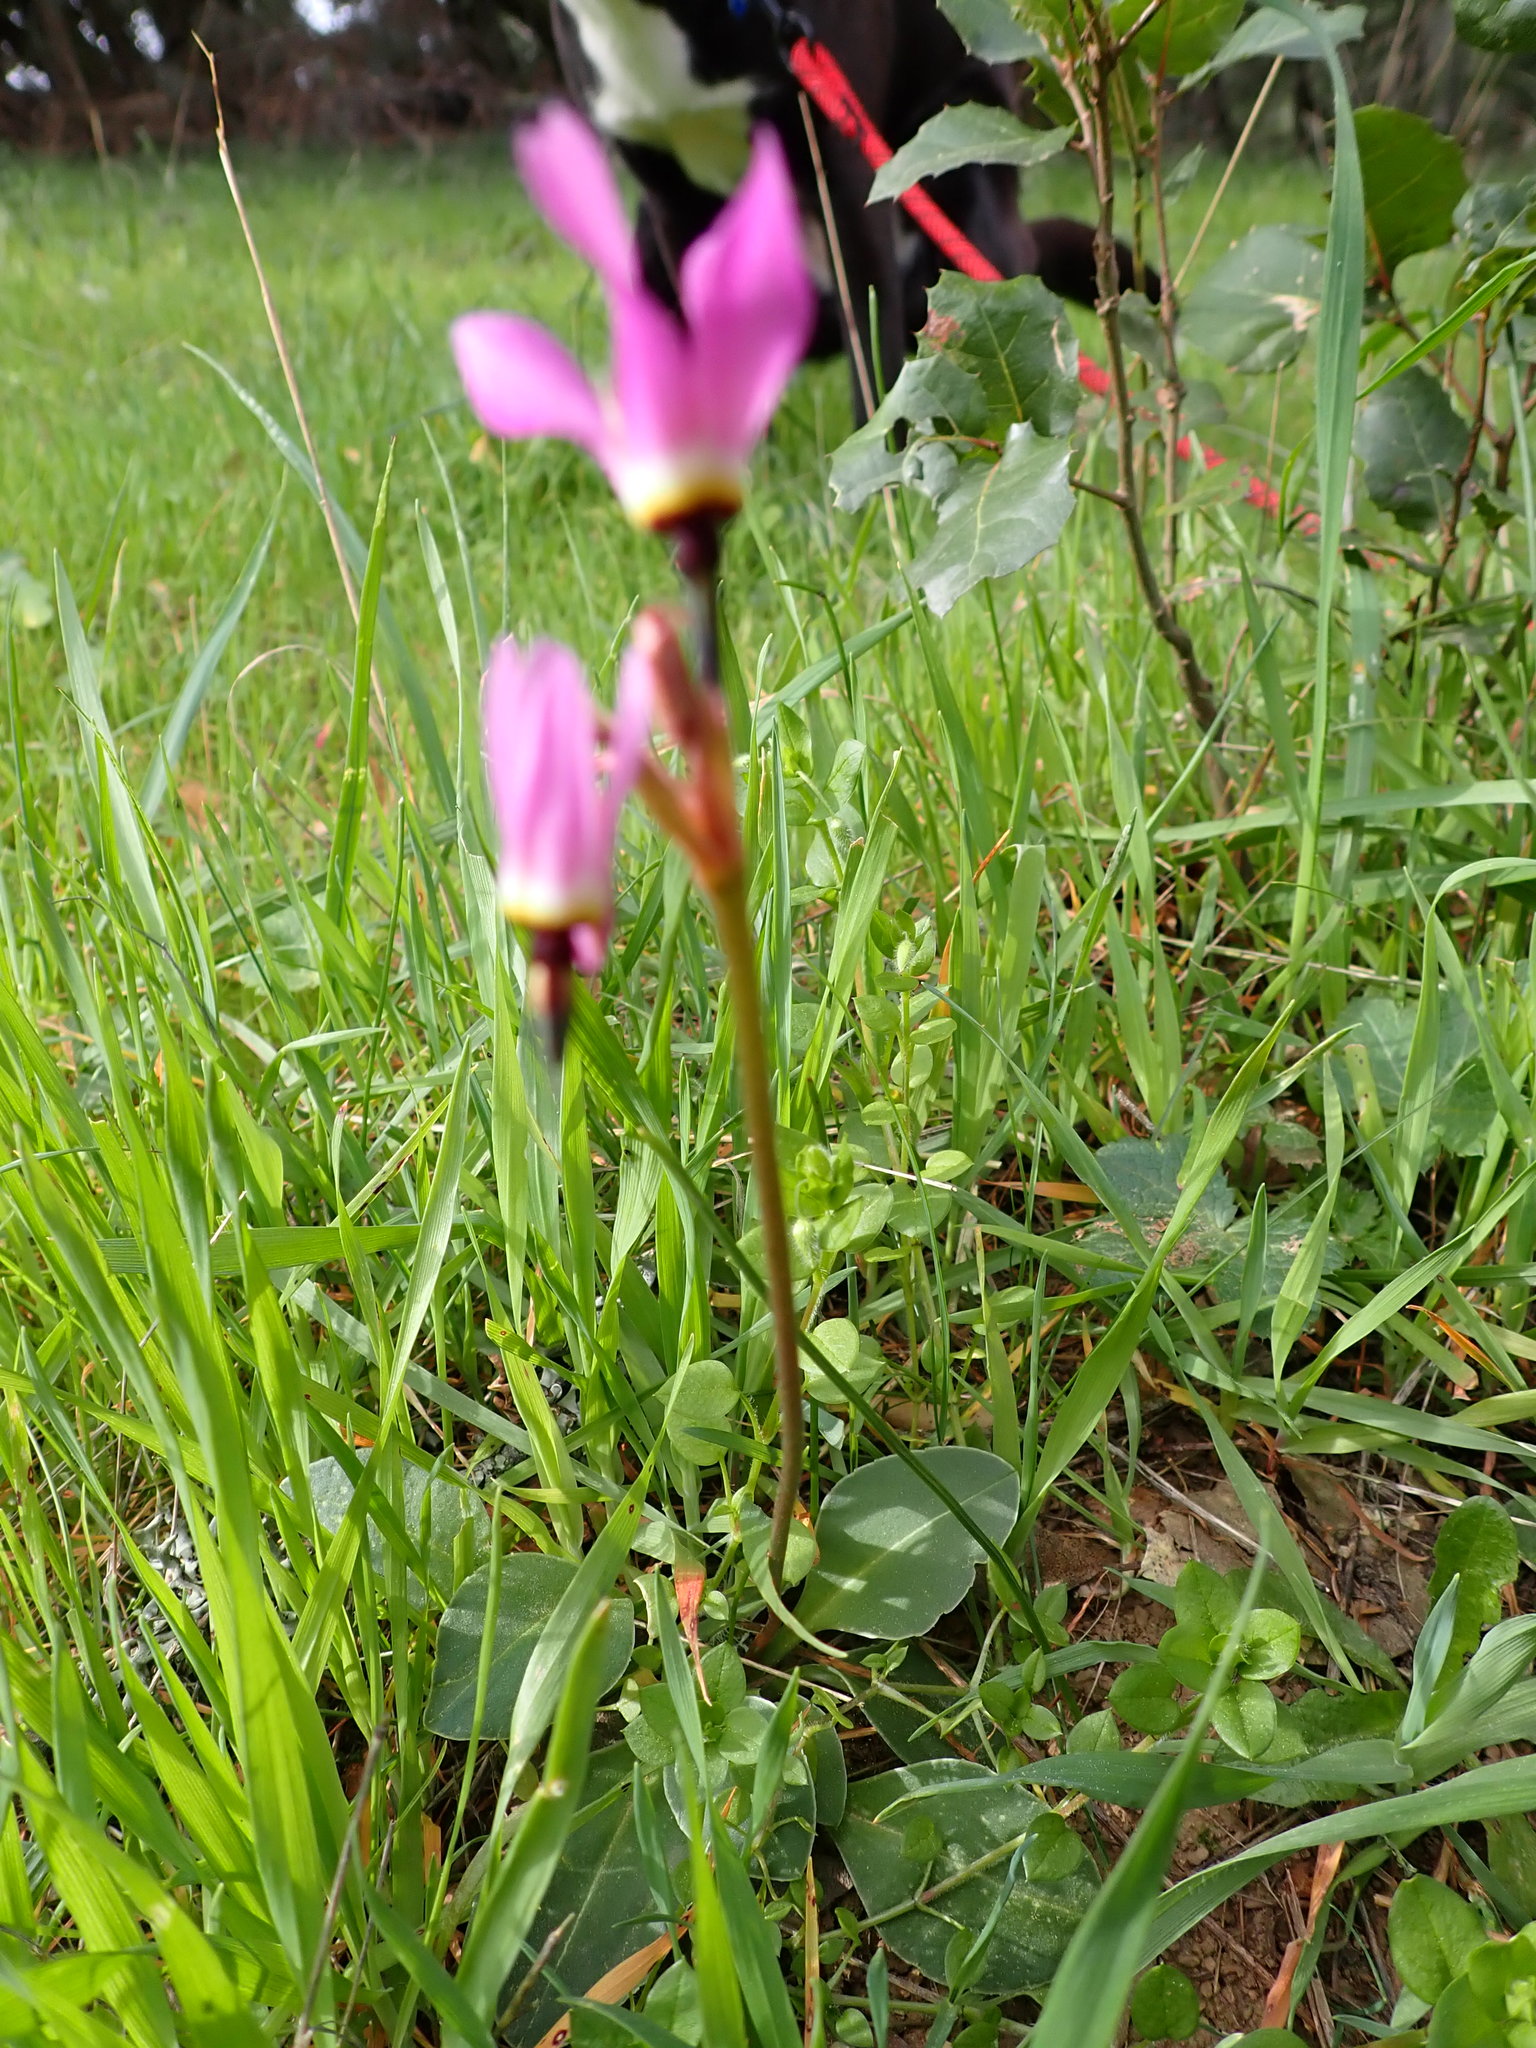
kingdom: Plantae
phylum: Tracheophyta
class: Magnoliopsida
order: Ericales
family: Primulaceae
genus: Dodecatheon
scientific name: Dodecatheon hendersonii
